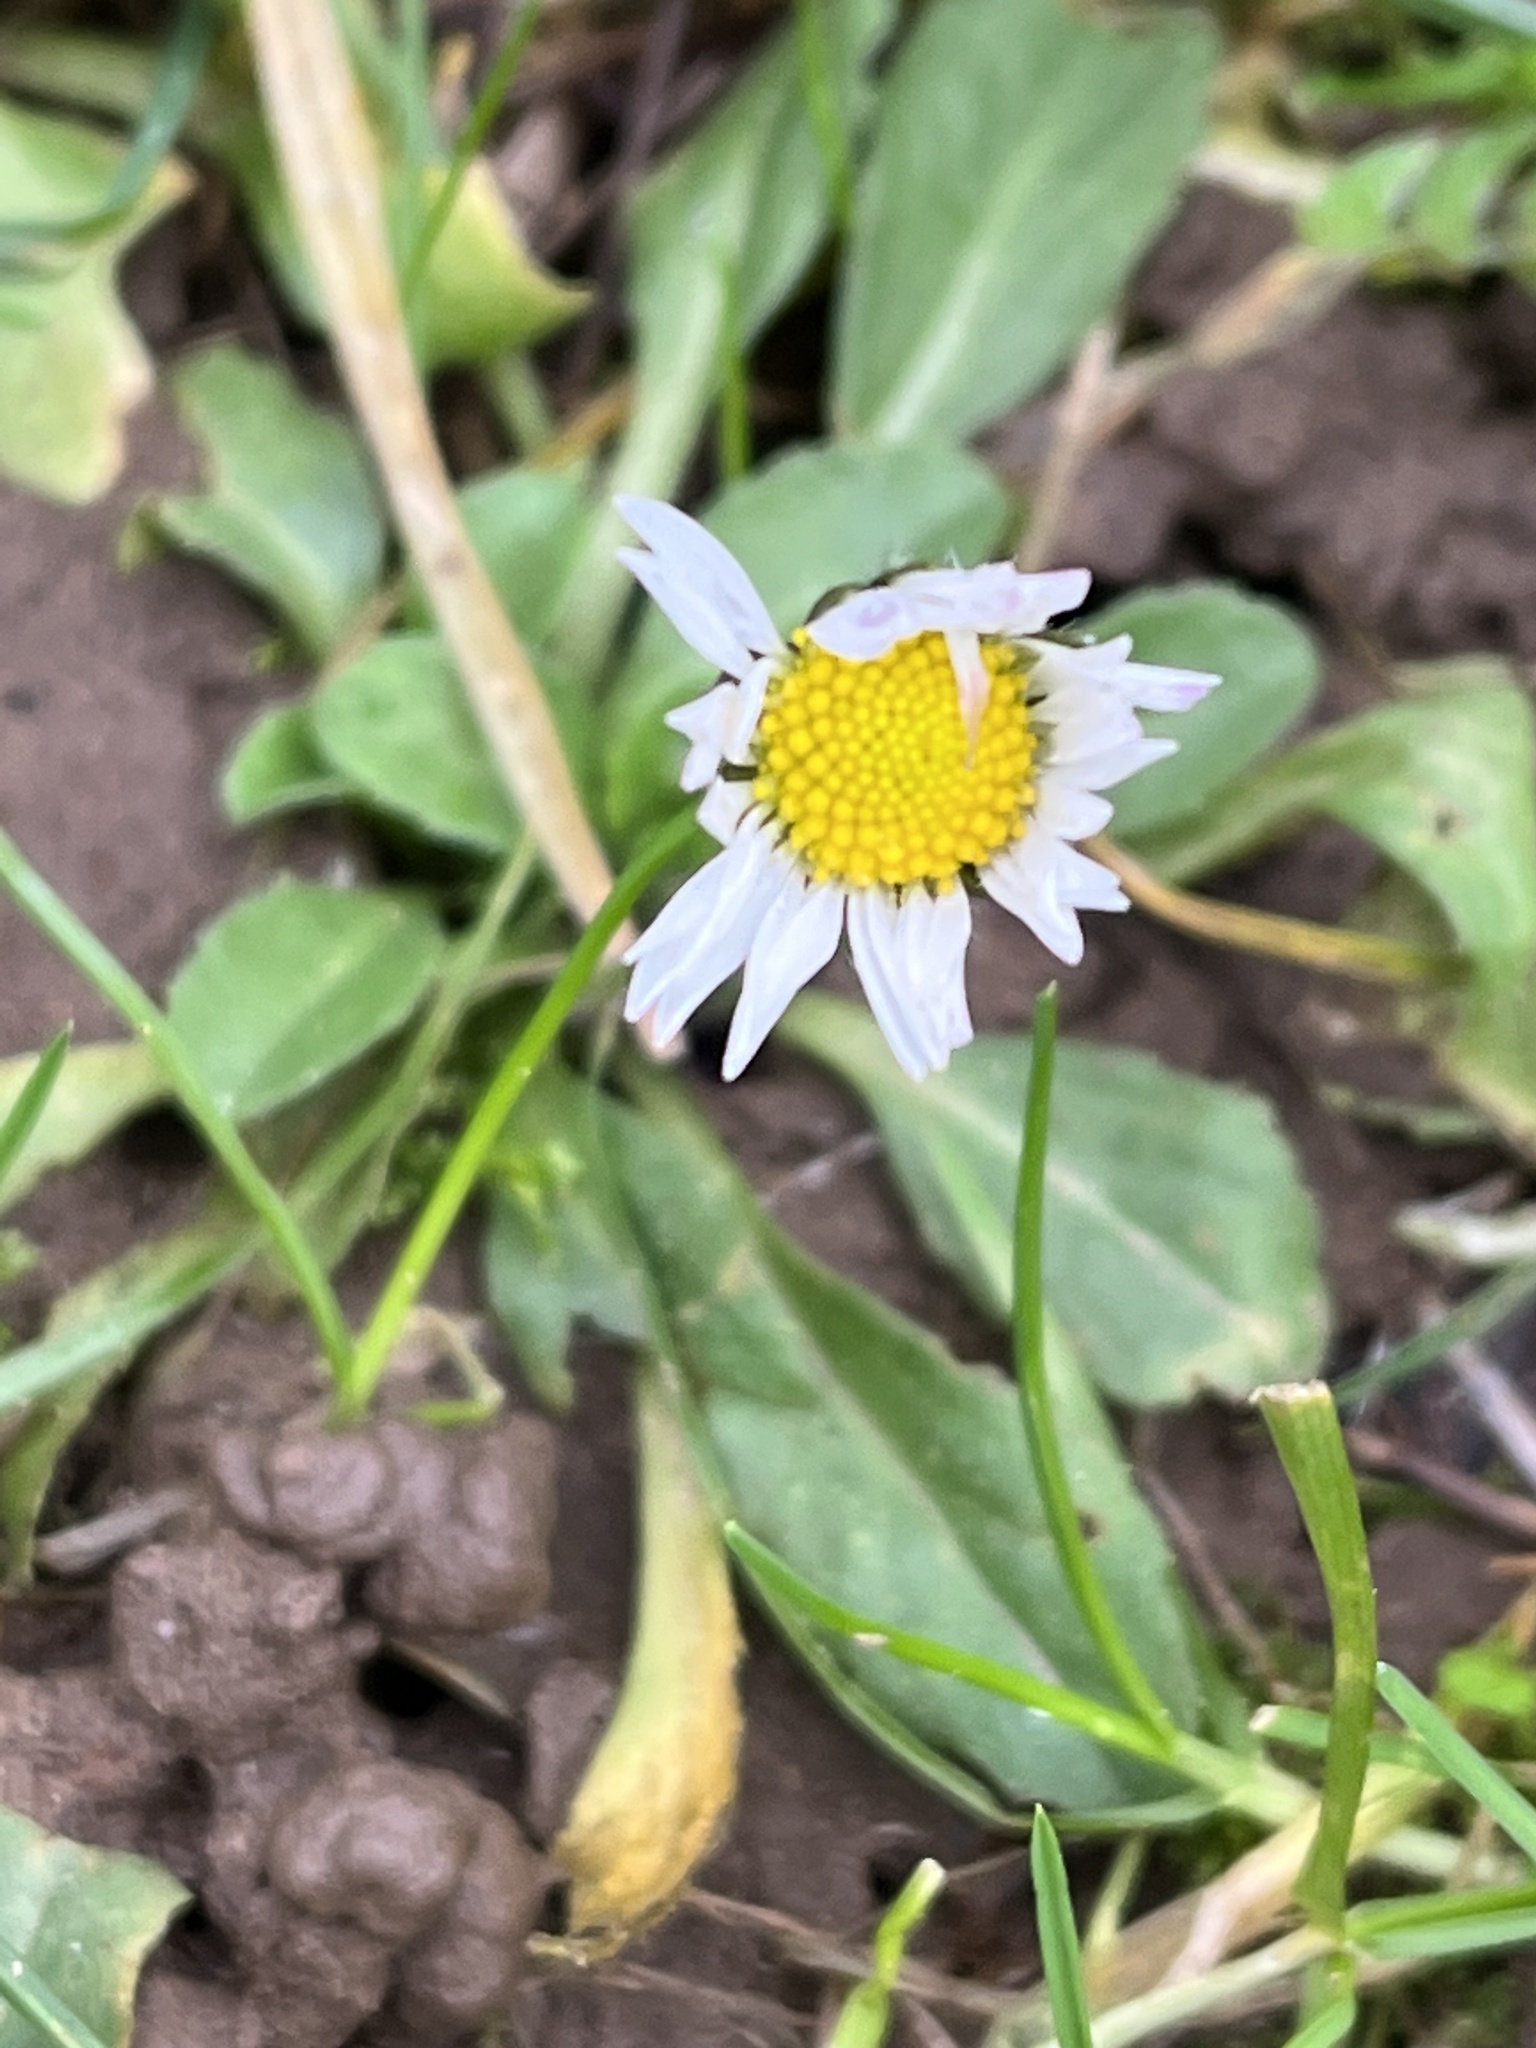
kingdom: Plantae
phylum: Tracheophyta
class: Magnoliopsida
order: Asterales
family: Asteraceae
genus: Bellis
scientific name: Bellis perennis
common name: Lawndaisy
